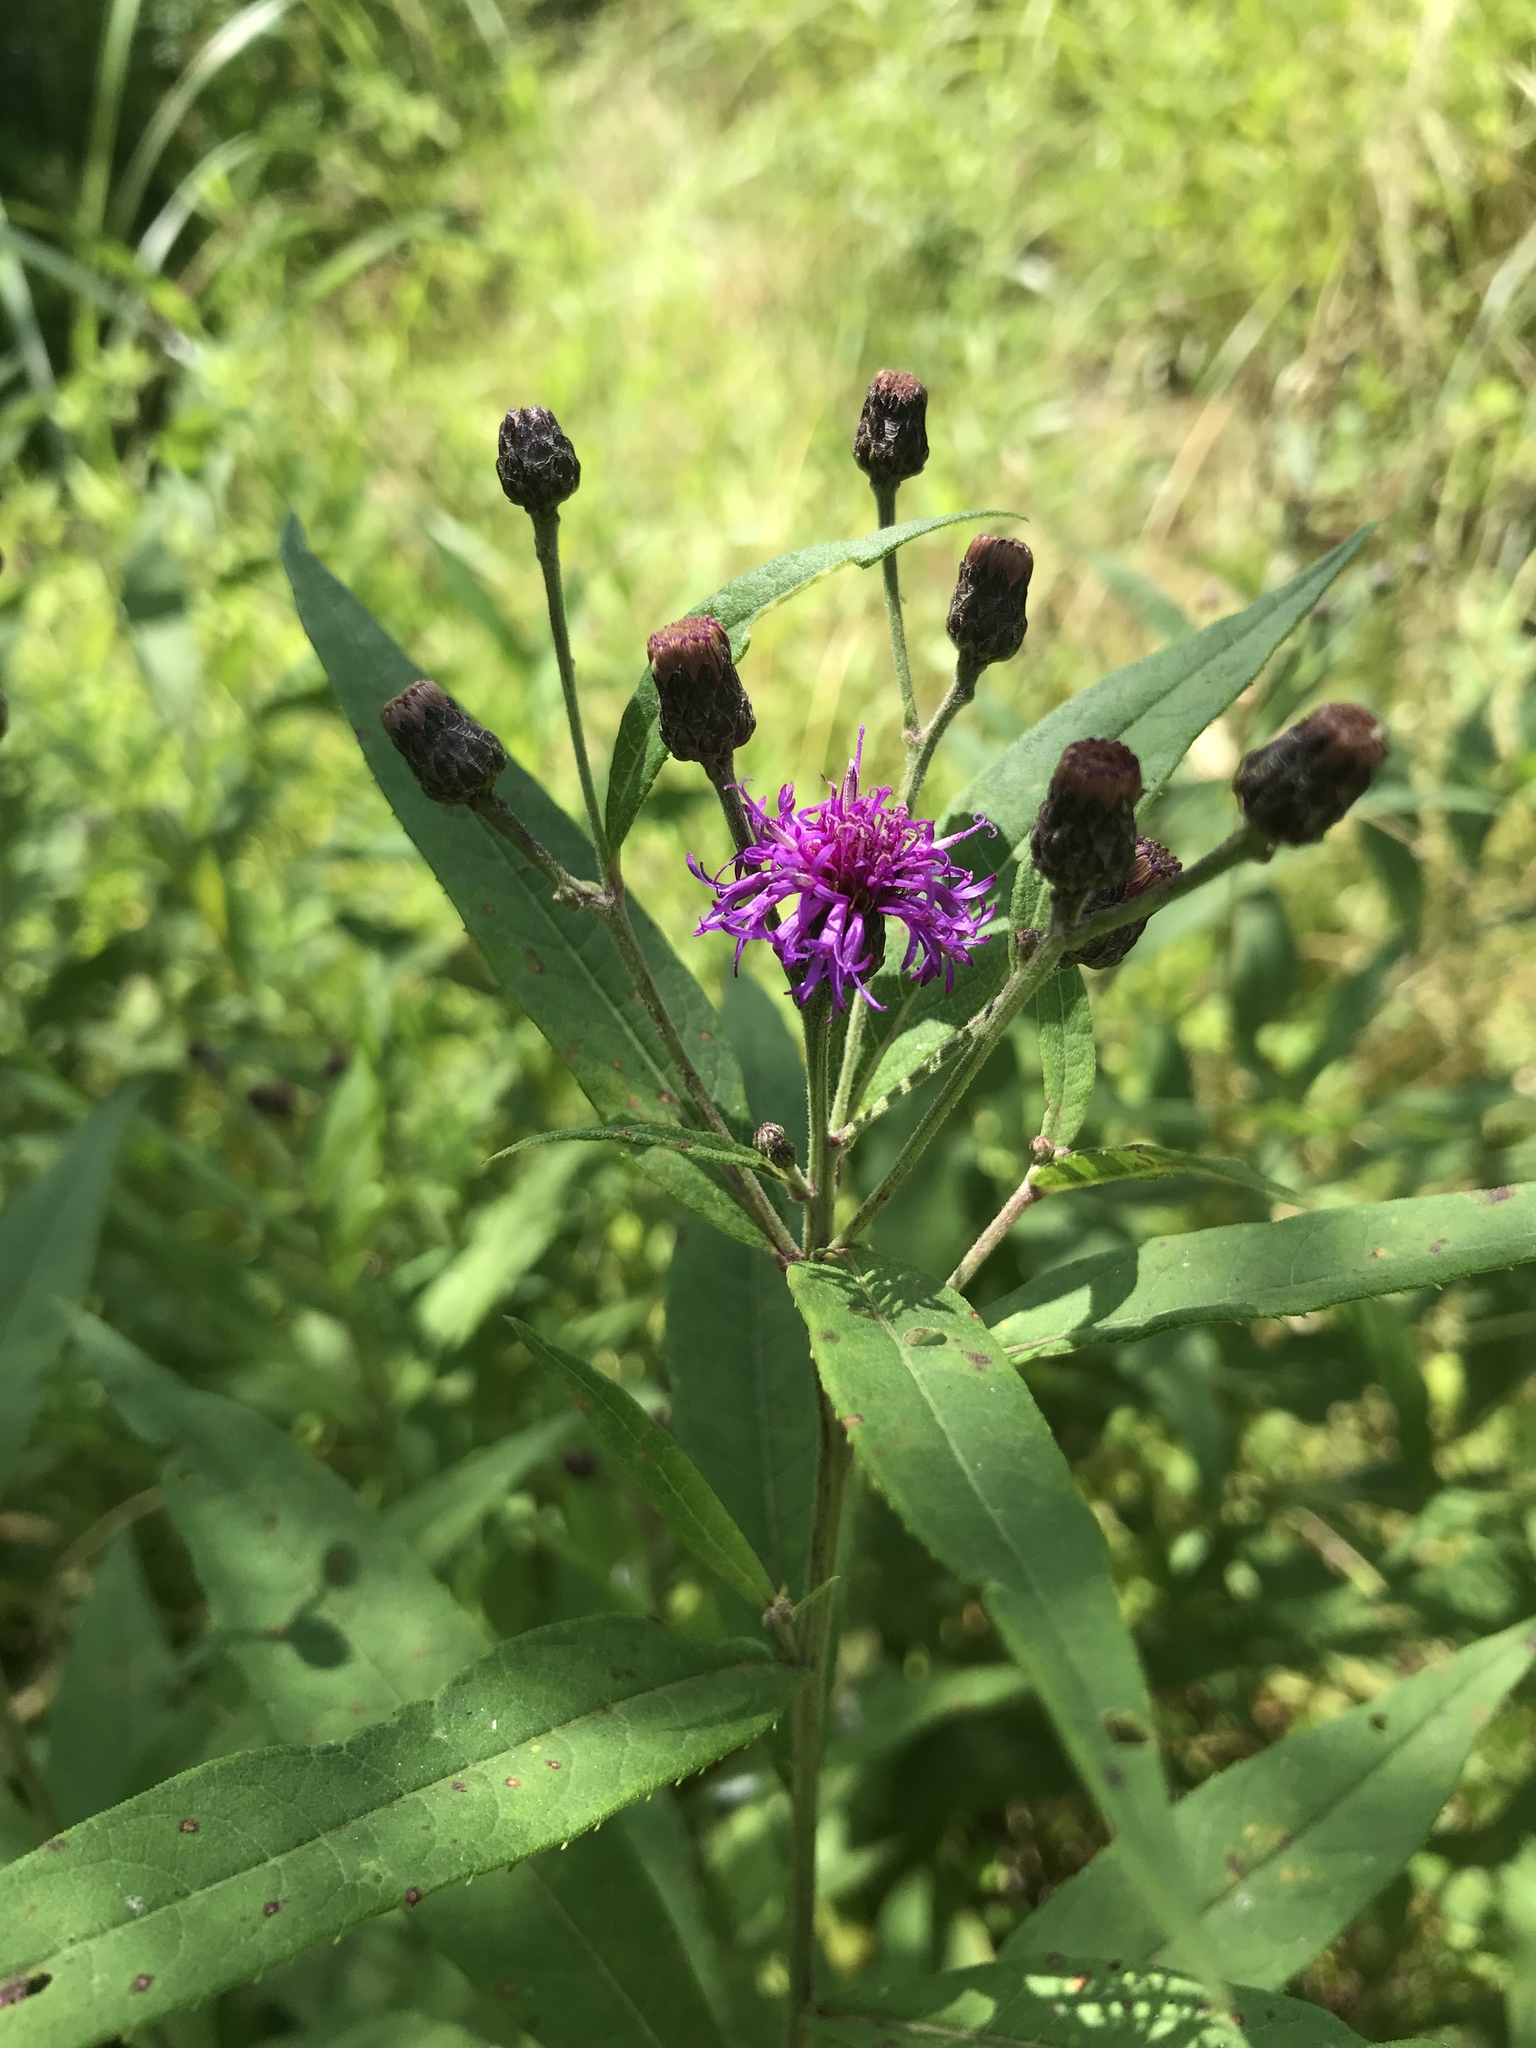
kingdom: Plantae
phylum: Tracheophyta
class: Magnoliopsida
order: Asterales
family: Asteraceae
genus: Vernonia
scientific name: Vernonia gigantea
